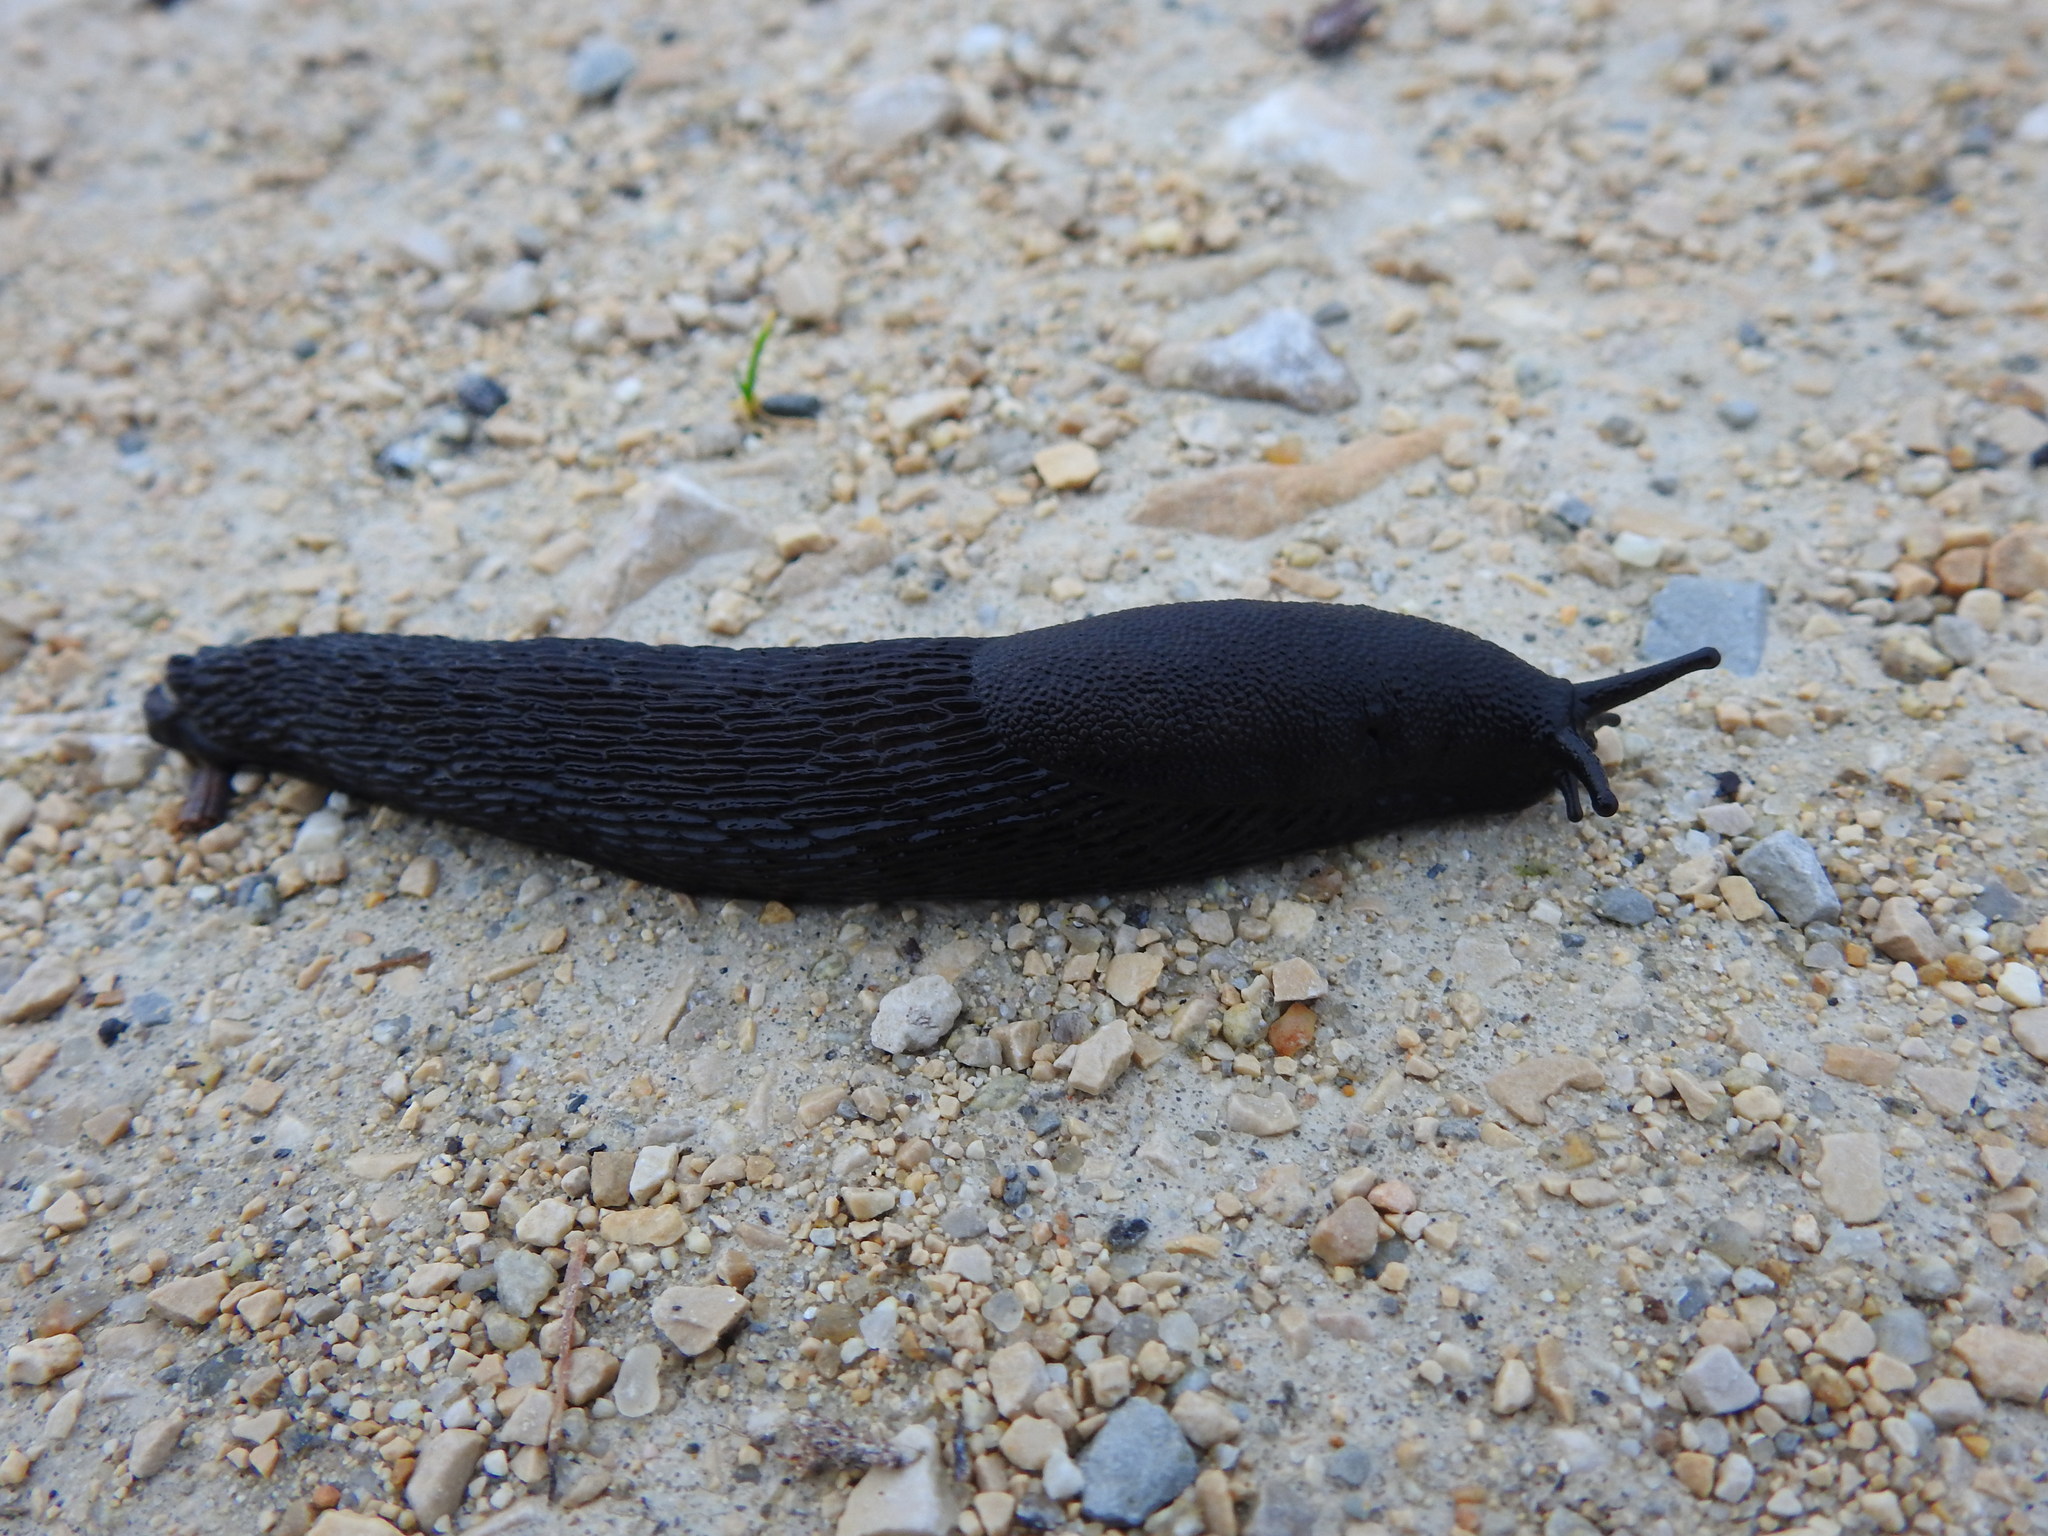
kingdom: Animalia
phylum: Mollusca
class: Gastropoda
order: Stylommatophora
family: Arionidae
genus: Arion
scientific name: Arion ater
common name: Black arion
